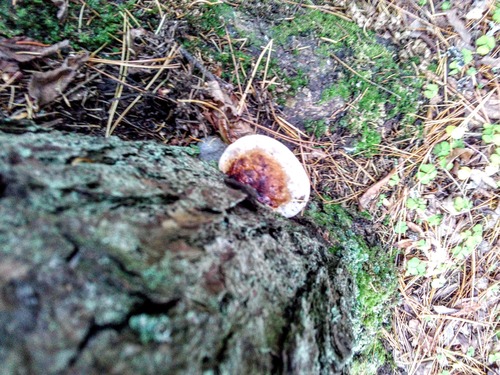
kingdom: Fungi
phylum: Basidiomycota
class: Agaricomycetes
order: Polyporales
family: Fomitopsidaceae
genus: Fomitopsis
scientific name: Fomitopsis pinicola
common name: Red-belted bracket
